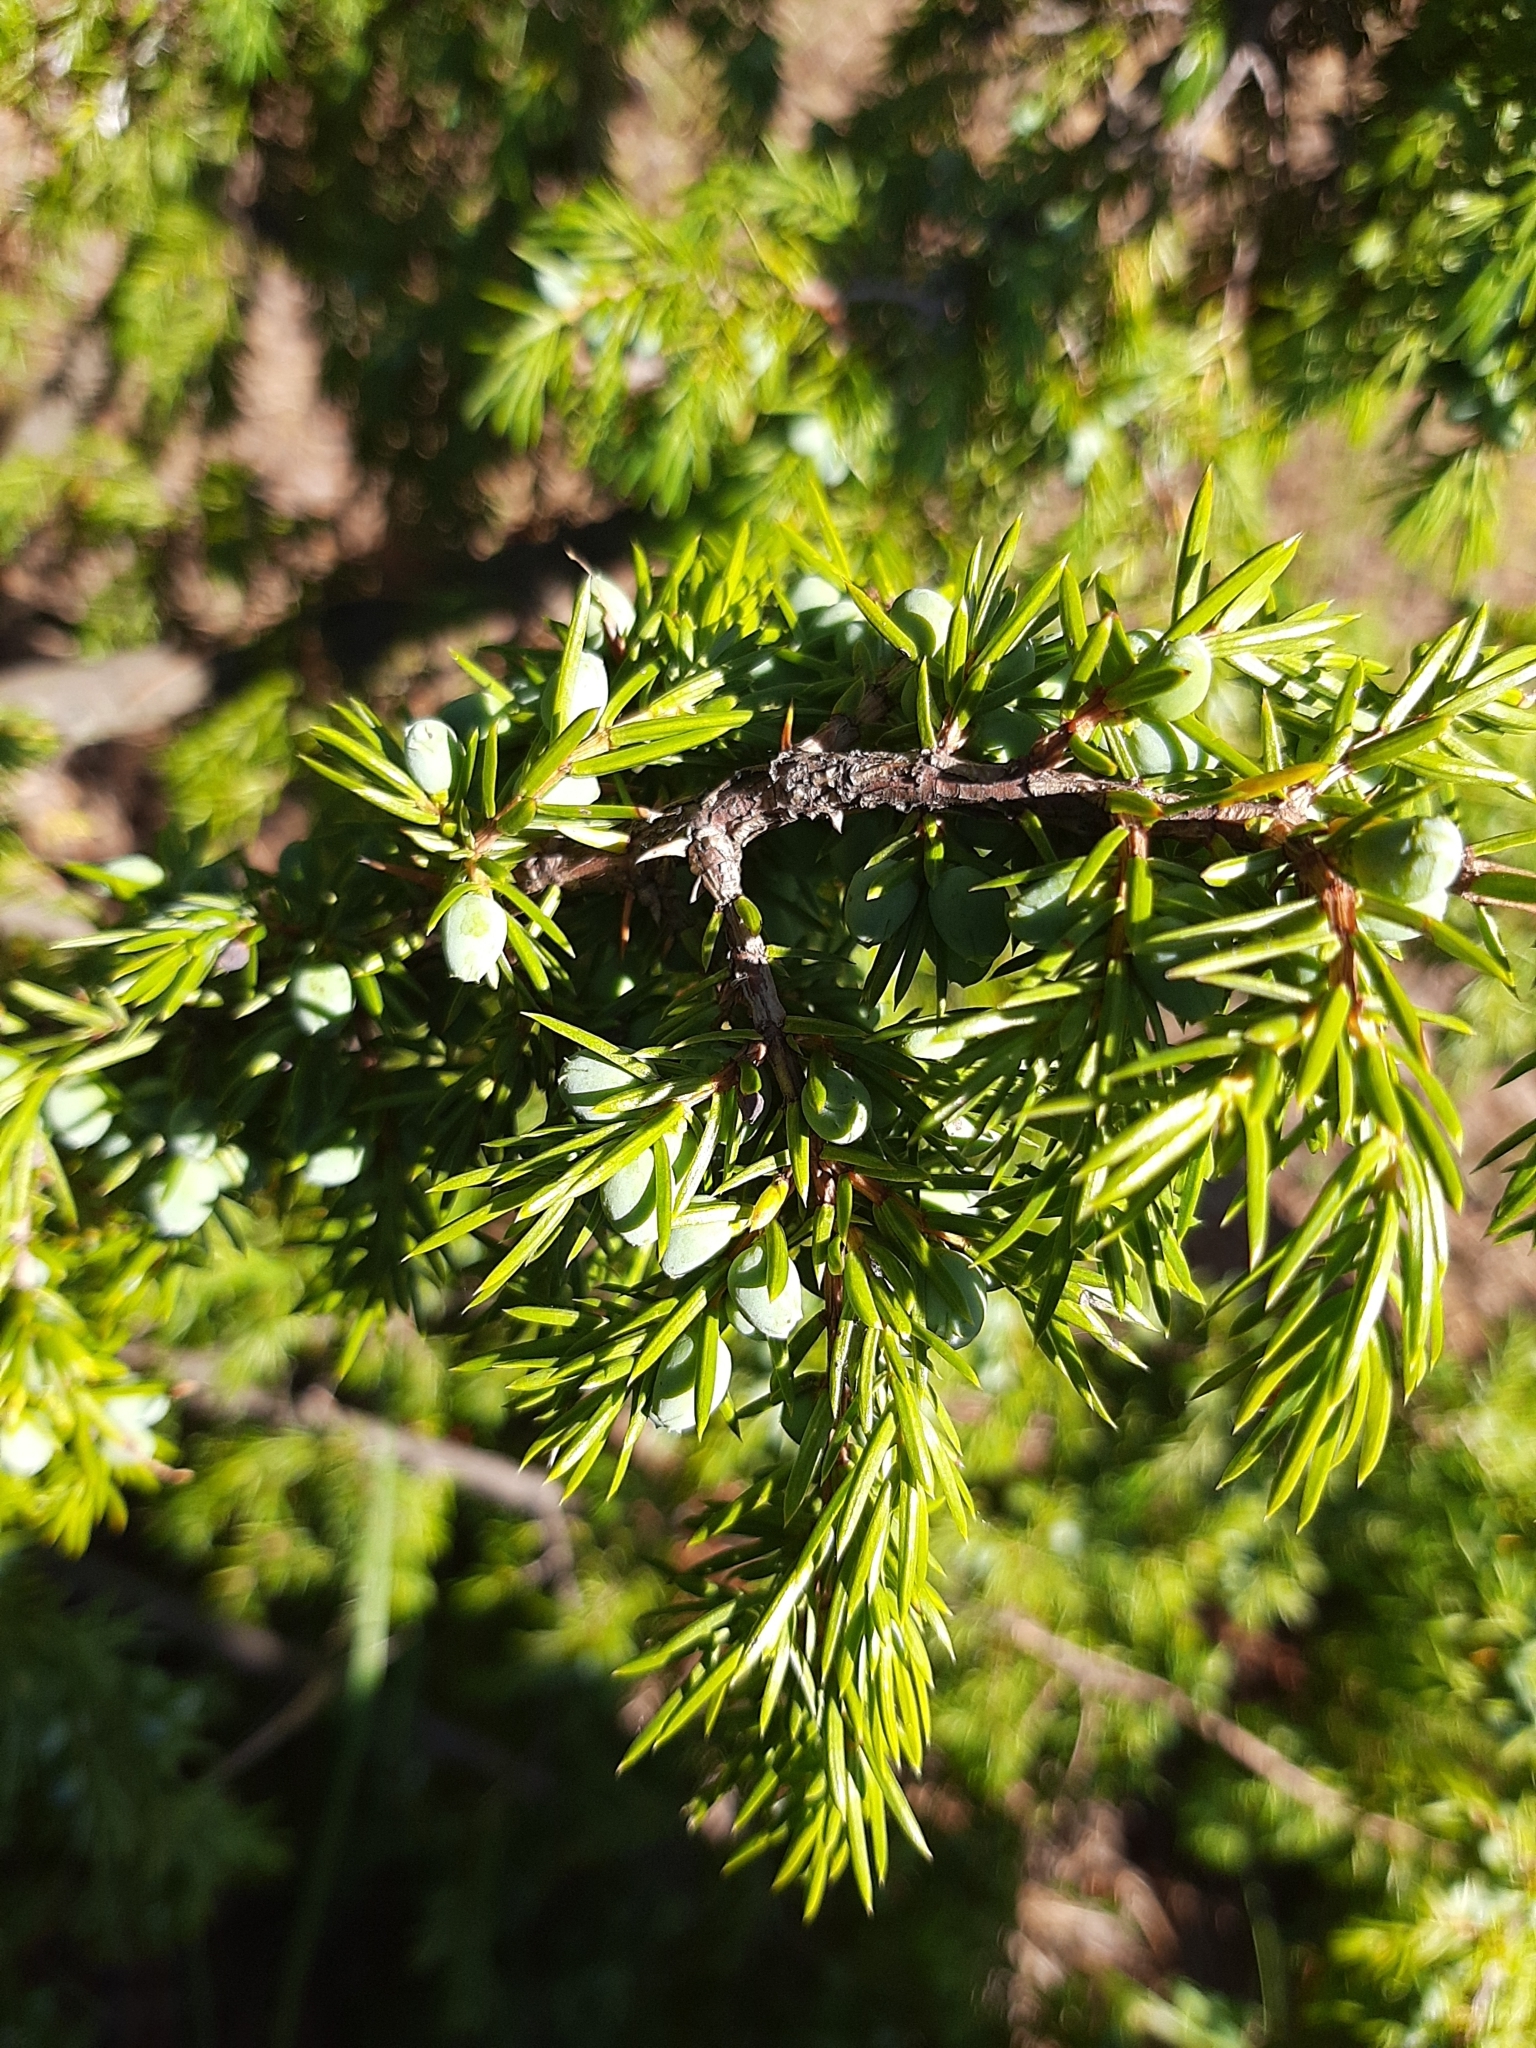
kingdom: Plantae
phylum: Tracheophyta
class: Pinopsida
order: Pinales
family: Cupressaceae
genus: Juniperus
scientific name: Juniperus communis
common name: Common juniper
